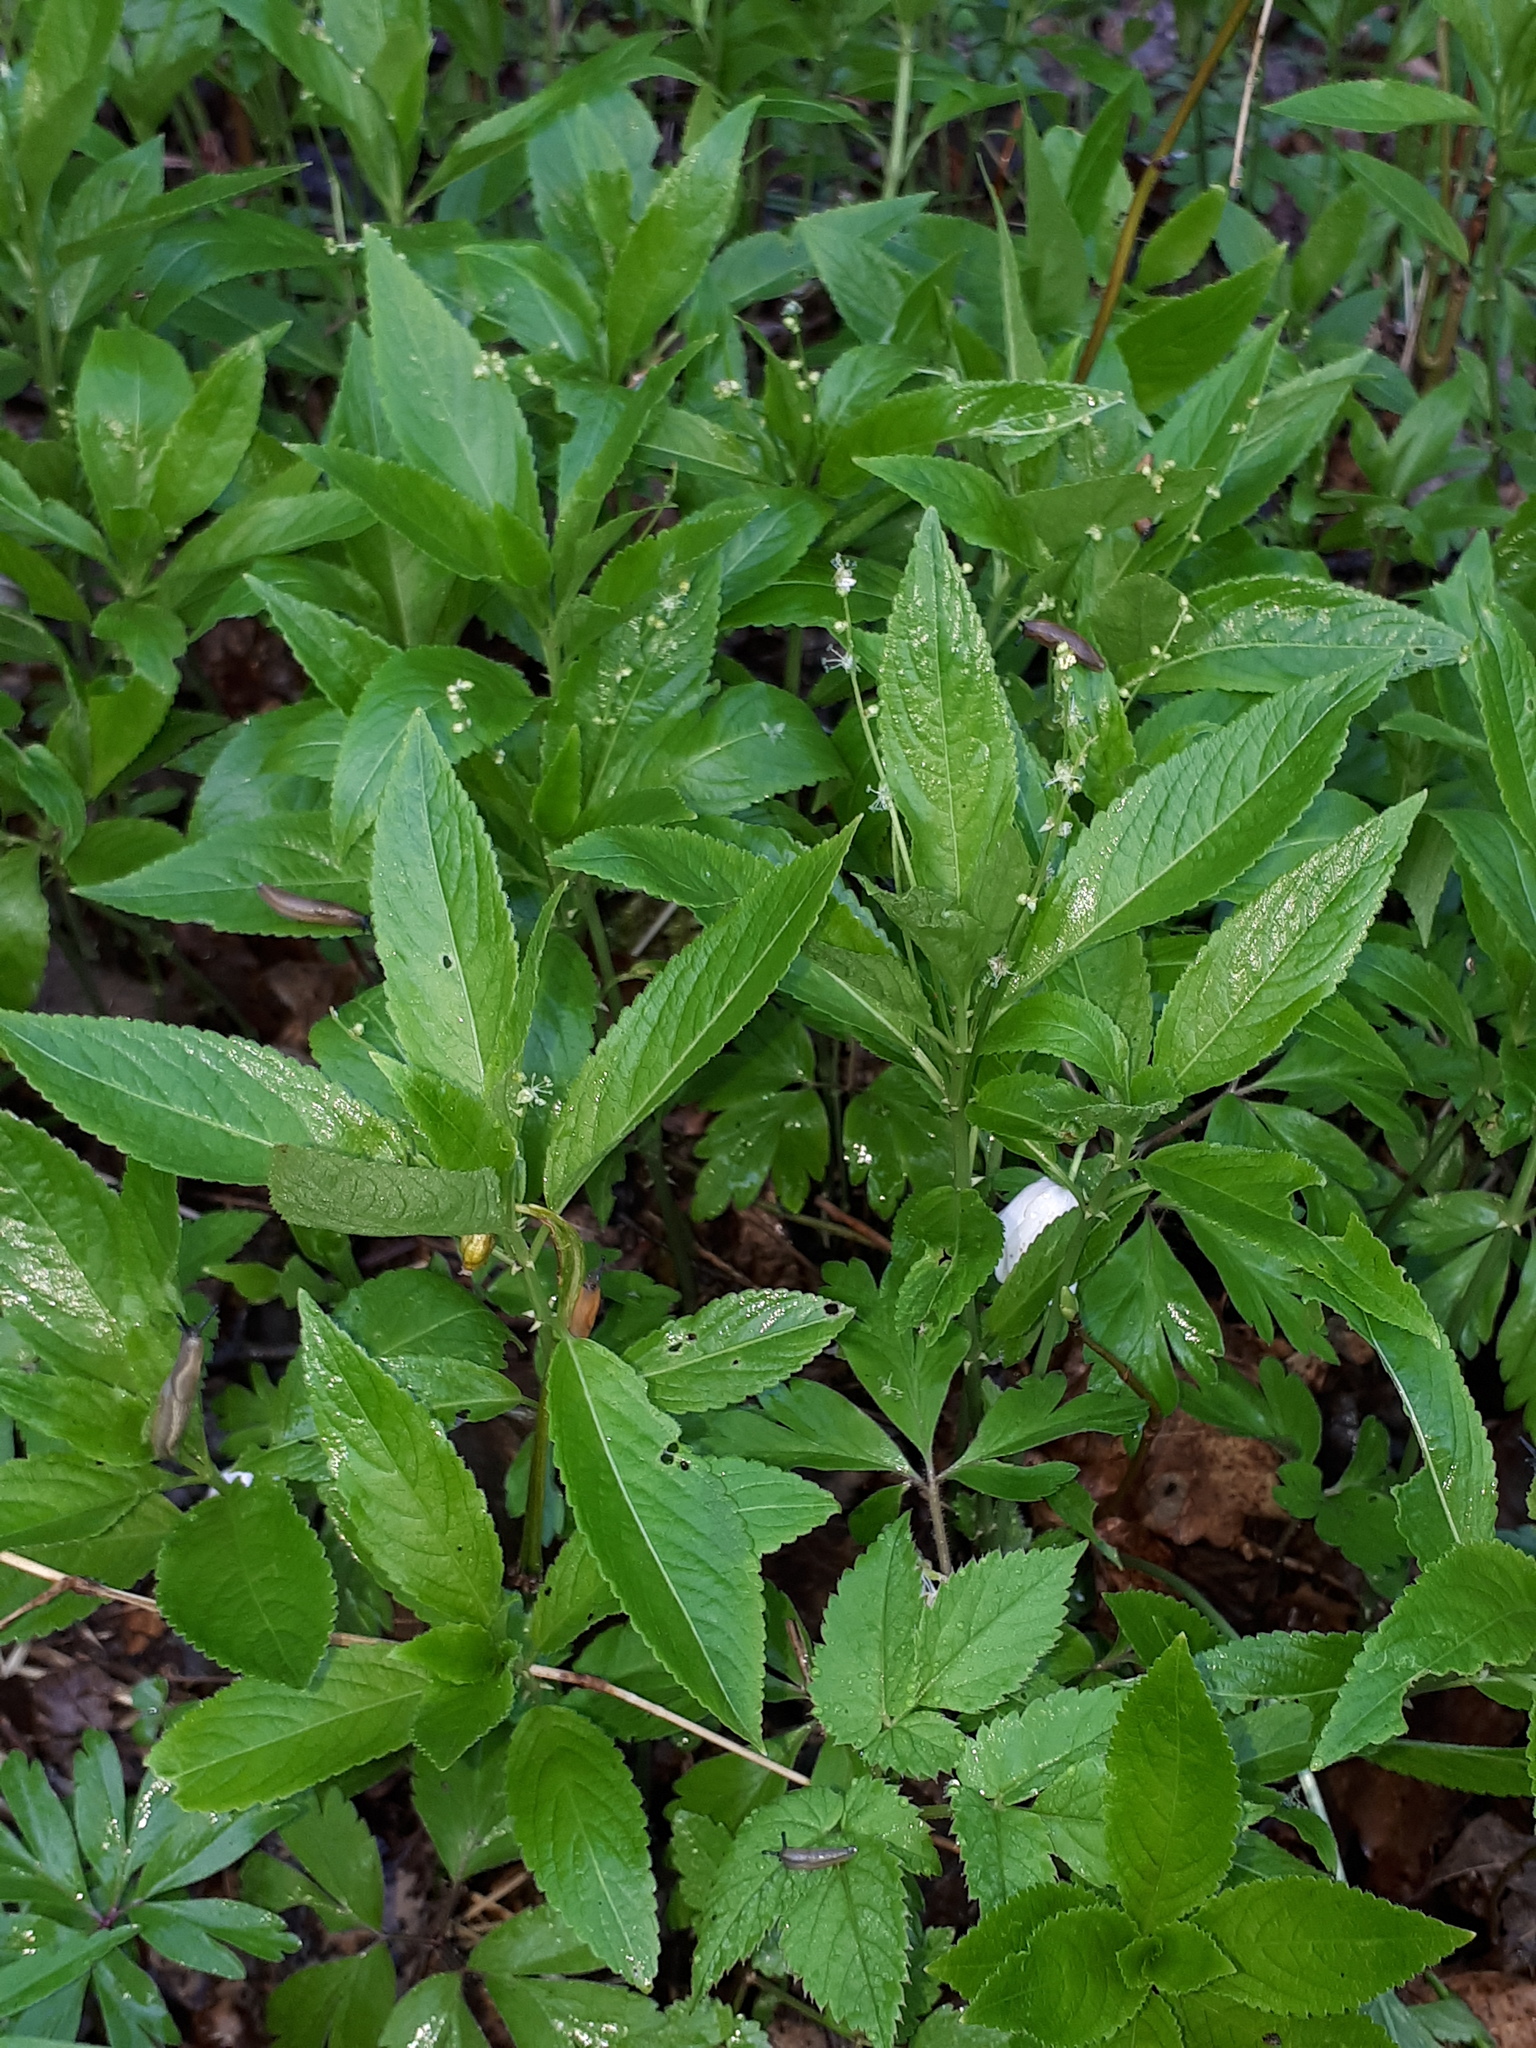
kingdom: Plantae
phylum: Tracheophyta
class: Magnoliopsida
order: Malpighiales
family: Euphorbiaceae
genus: Mercurialis
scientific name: Mercurialis perennis
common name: Dog mercury
